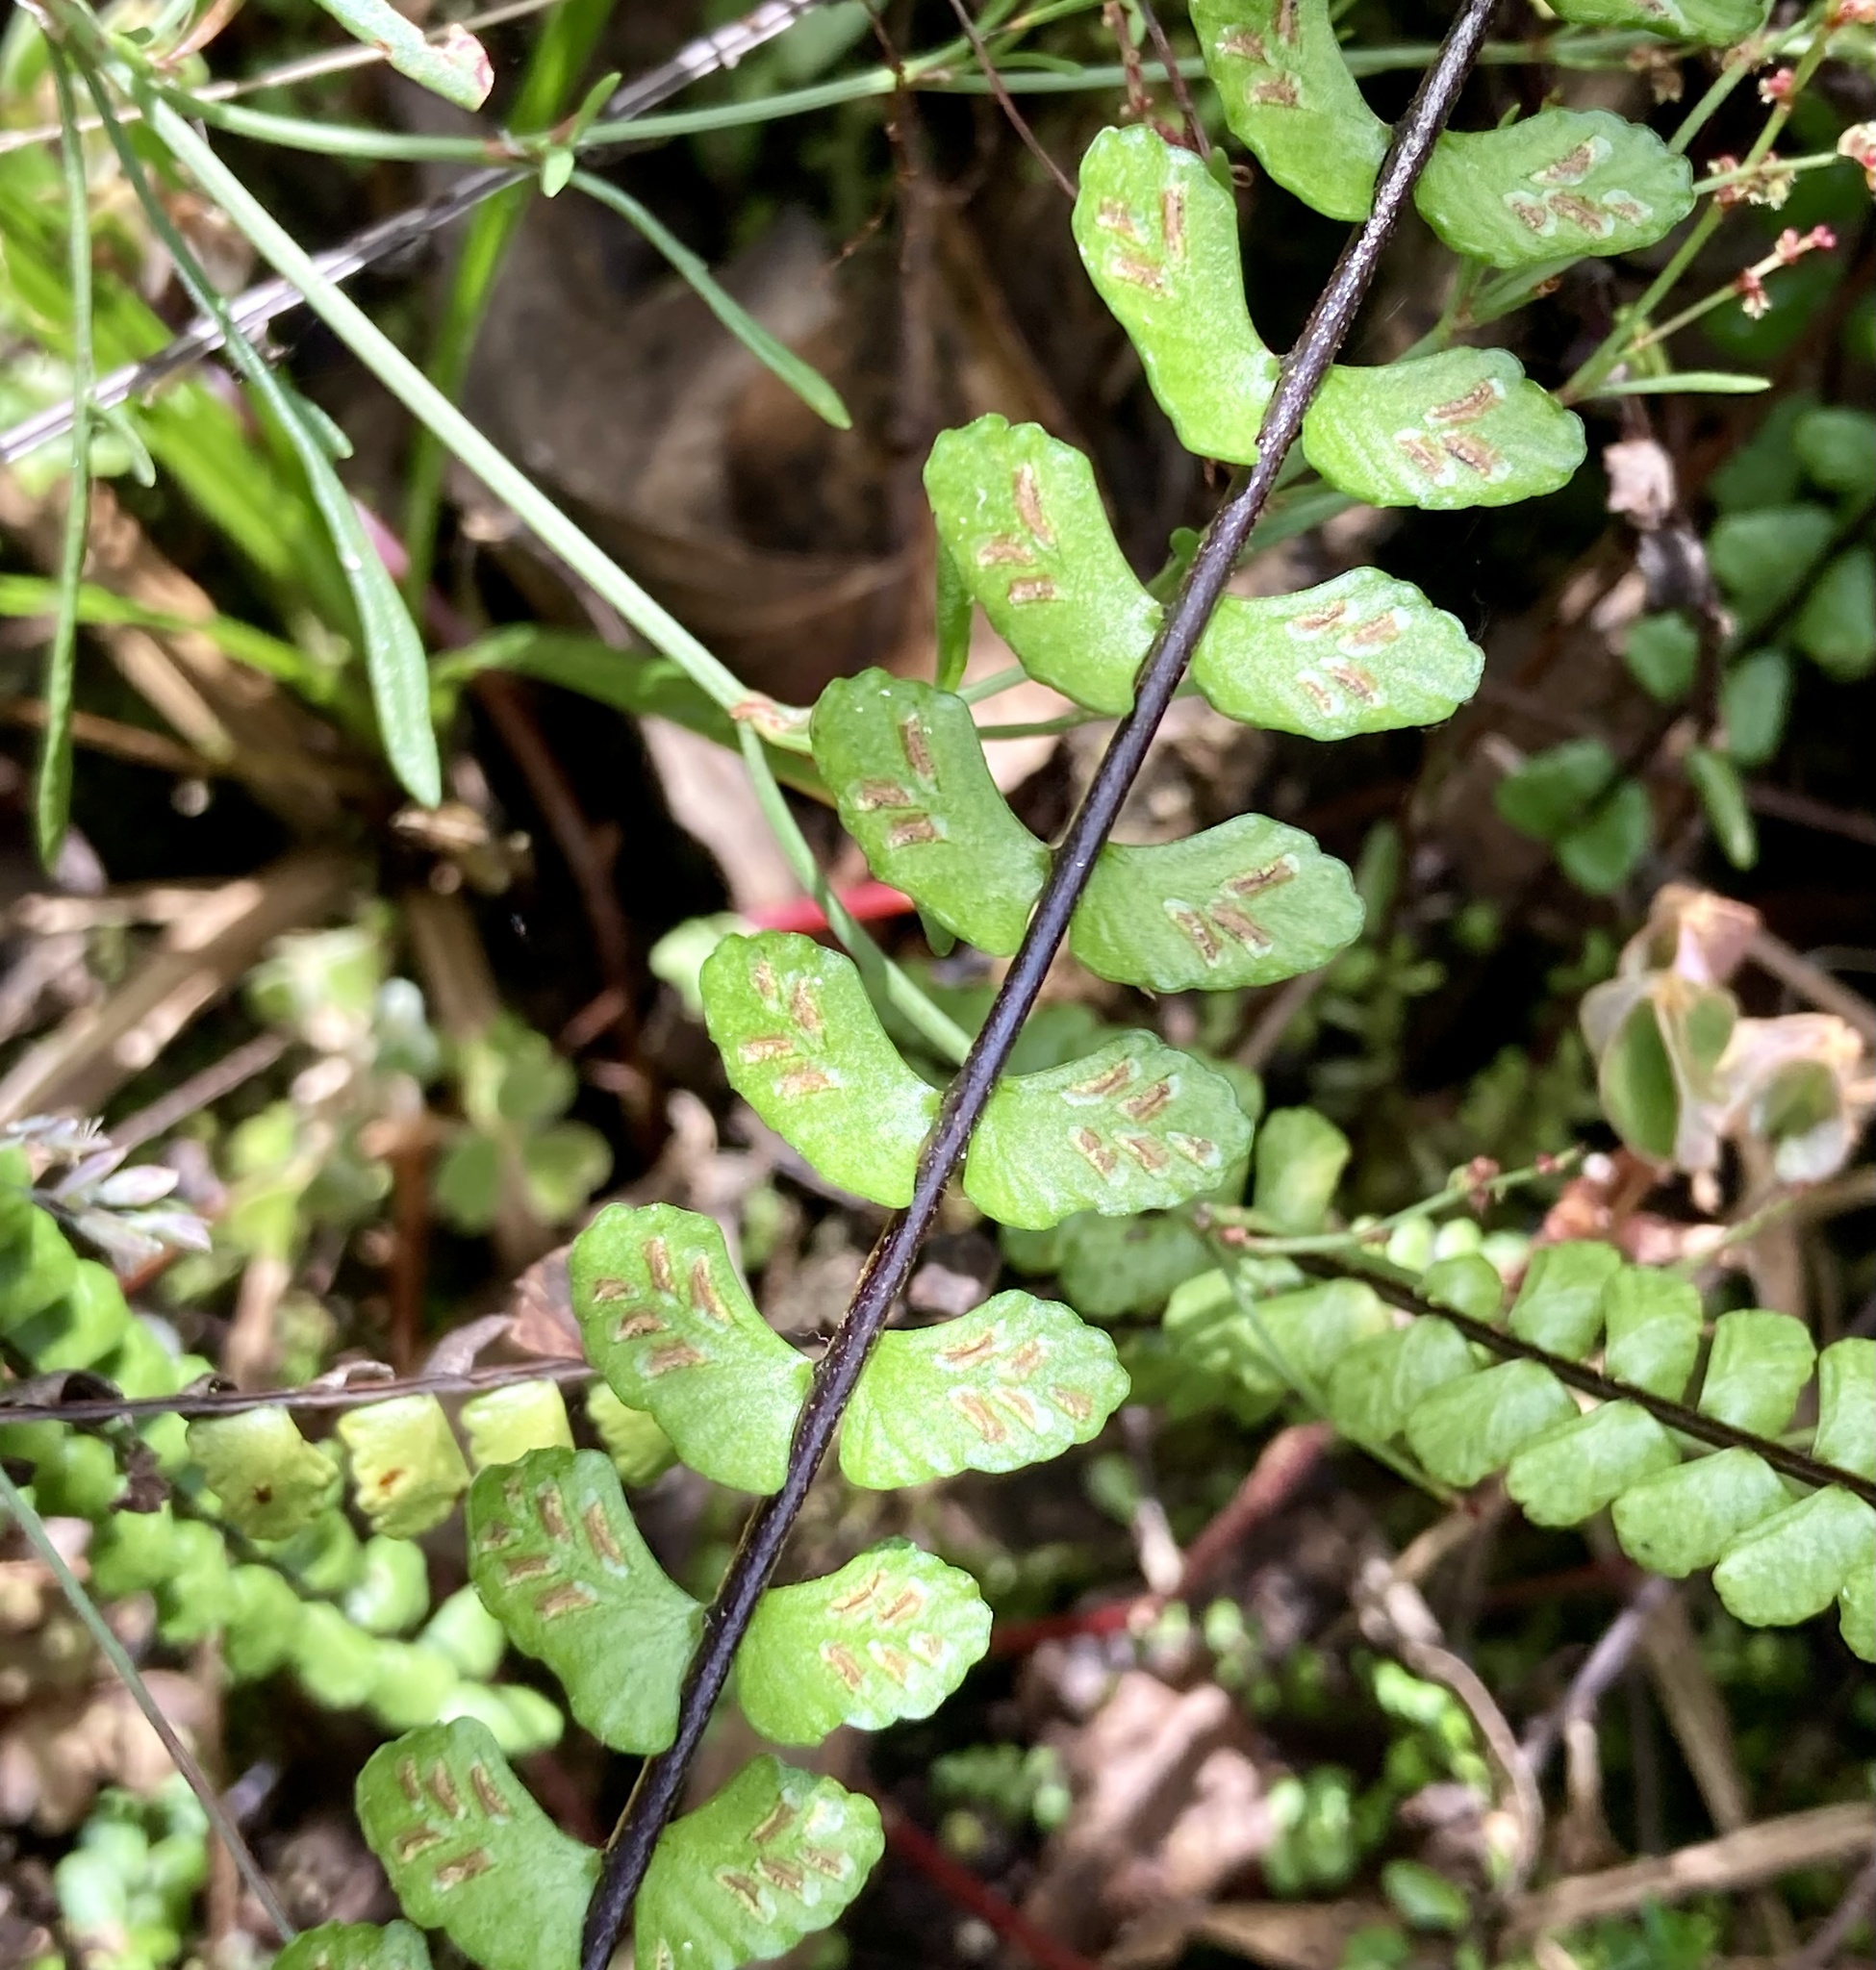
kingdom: Plantae
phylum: Tracheophyta
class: Polypodiopsida
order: Polypodiales
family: Aspleniaceae
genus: Asplenium
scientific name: Asplenium castaneum
